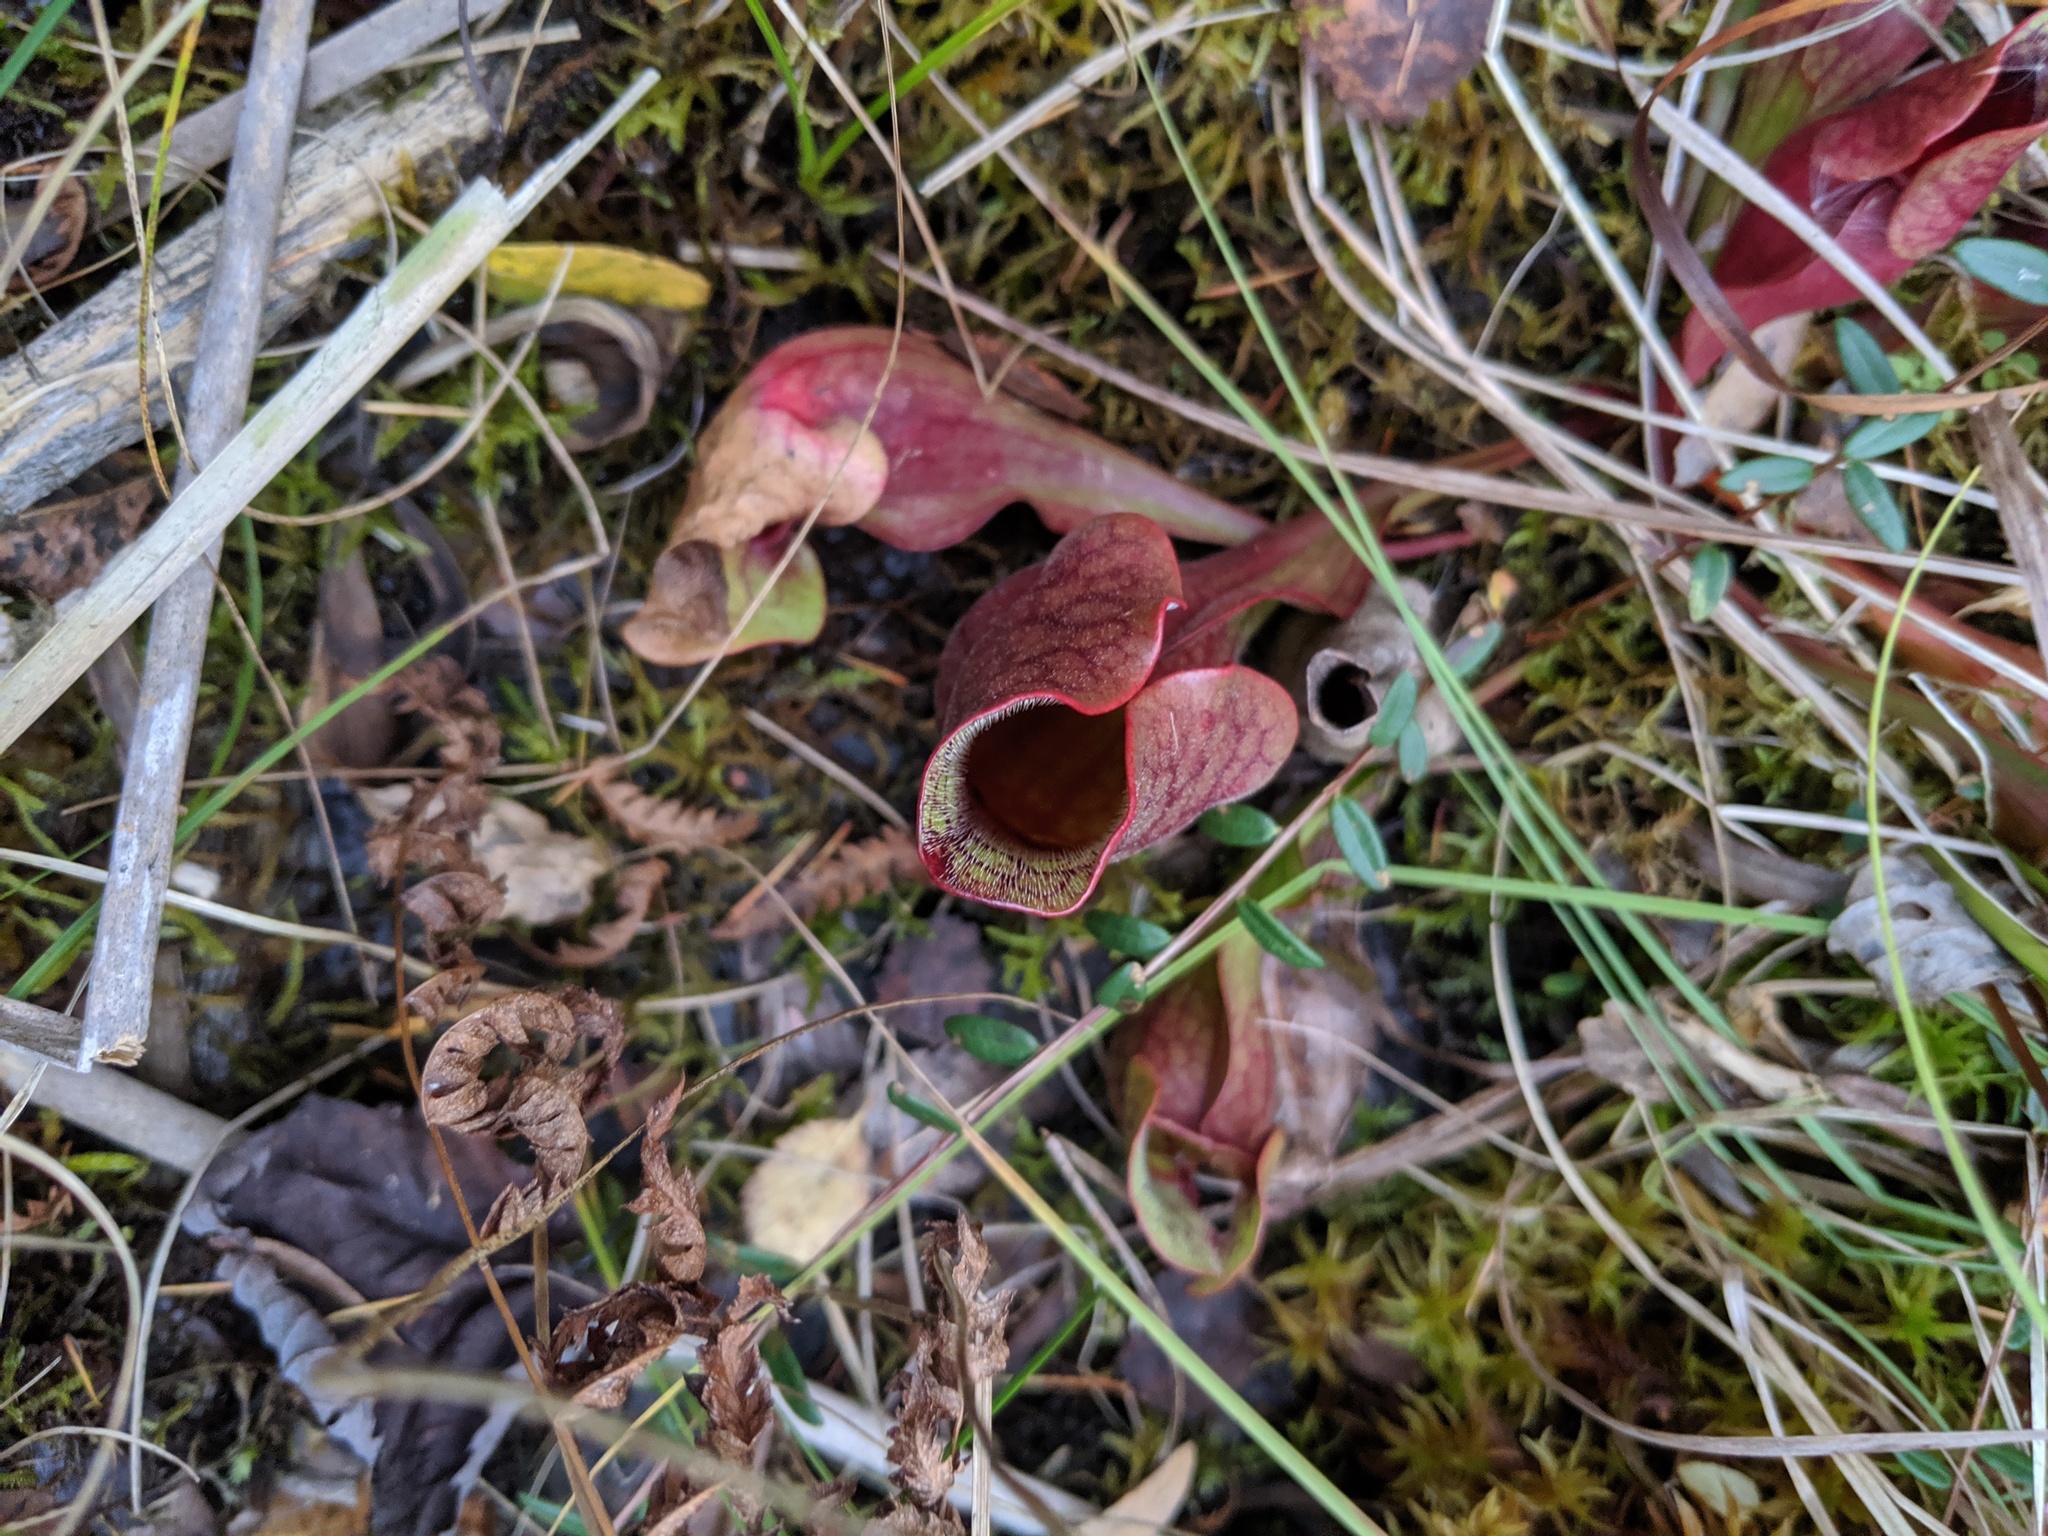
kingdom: Plantae
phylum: Tracheophyta
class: Magnoliopsida
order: Ericales
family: Sarraceniaceae
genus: Sarracenia
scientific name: Sarracenia purpurea
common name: Pitcherplant
